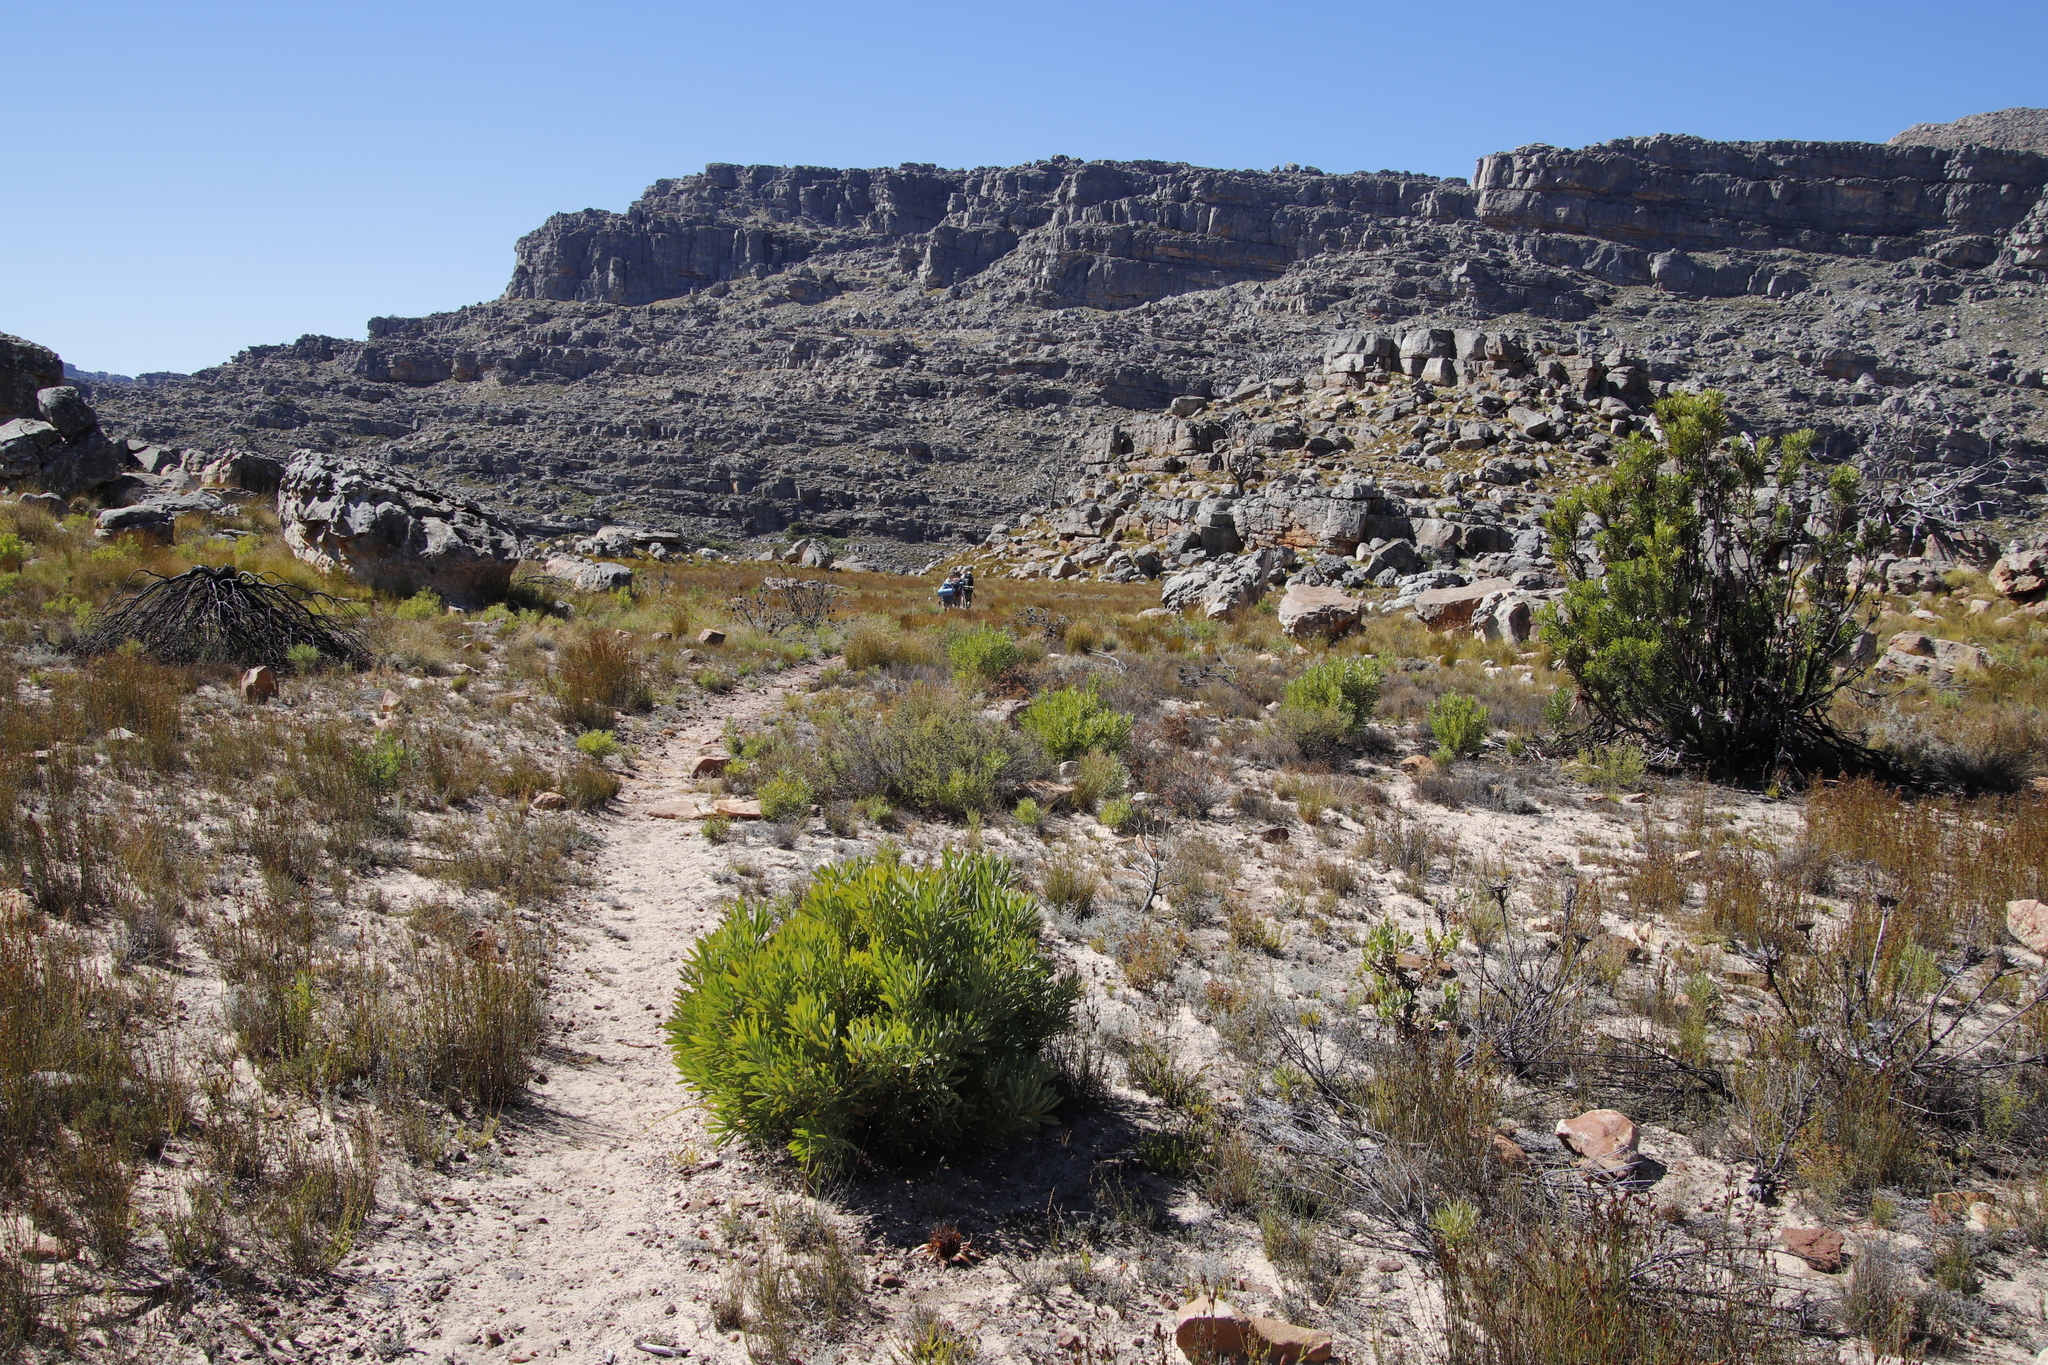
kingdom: Plantae
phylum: Tracheophyta
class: Magnoliopsida
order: Proteales
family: Proteaceae
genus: Protea
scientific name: Protea repens
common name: Sugarbush
